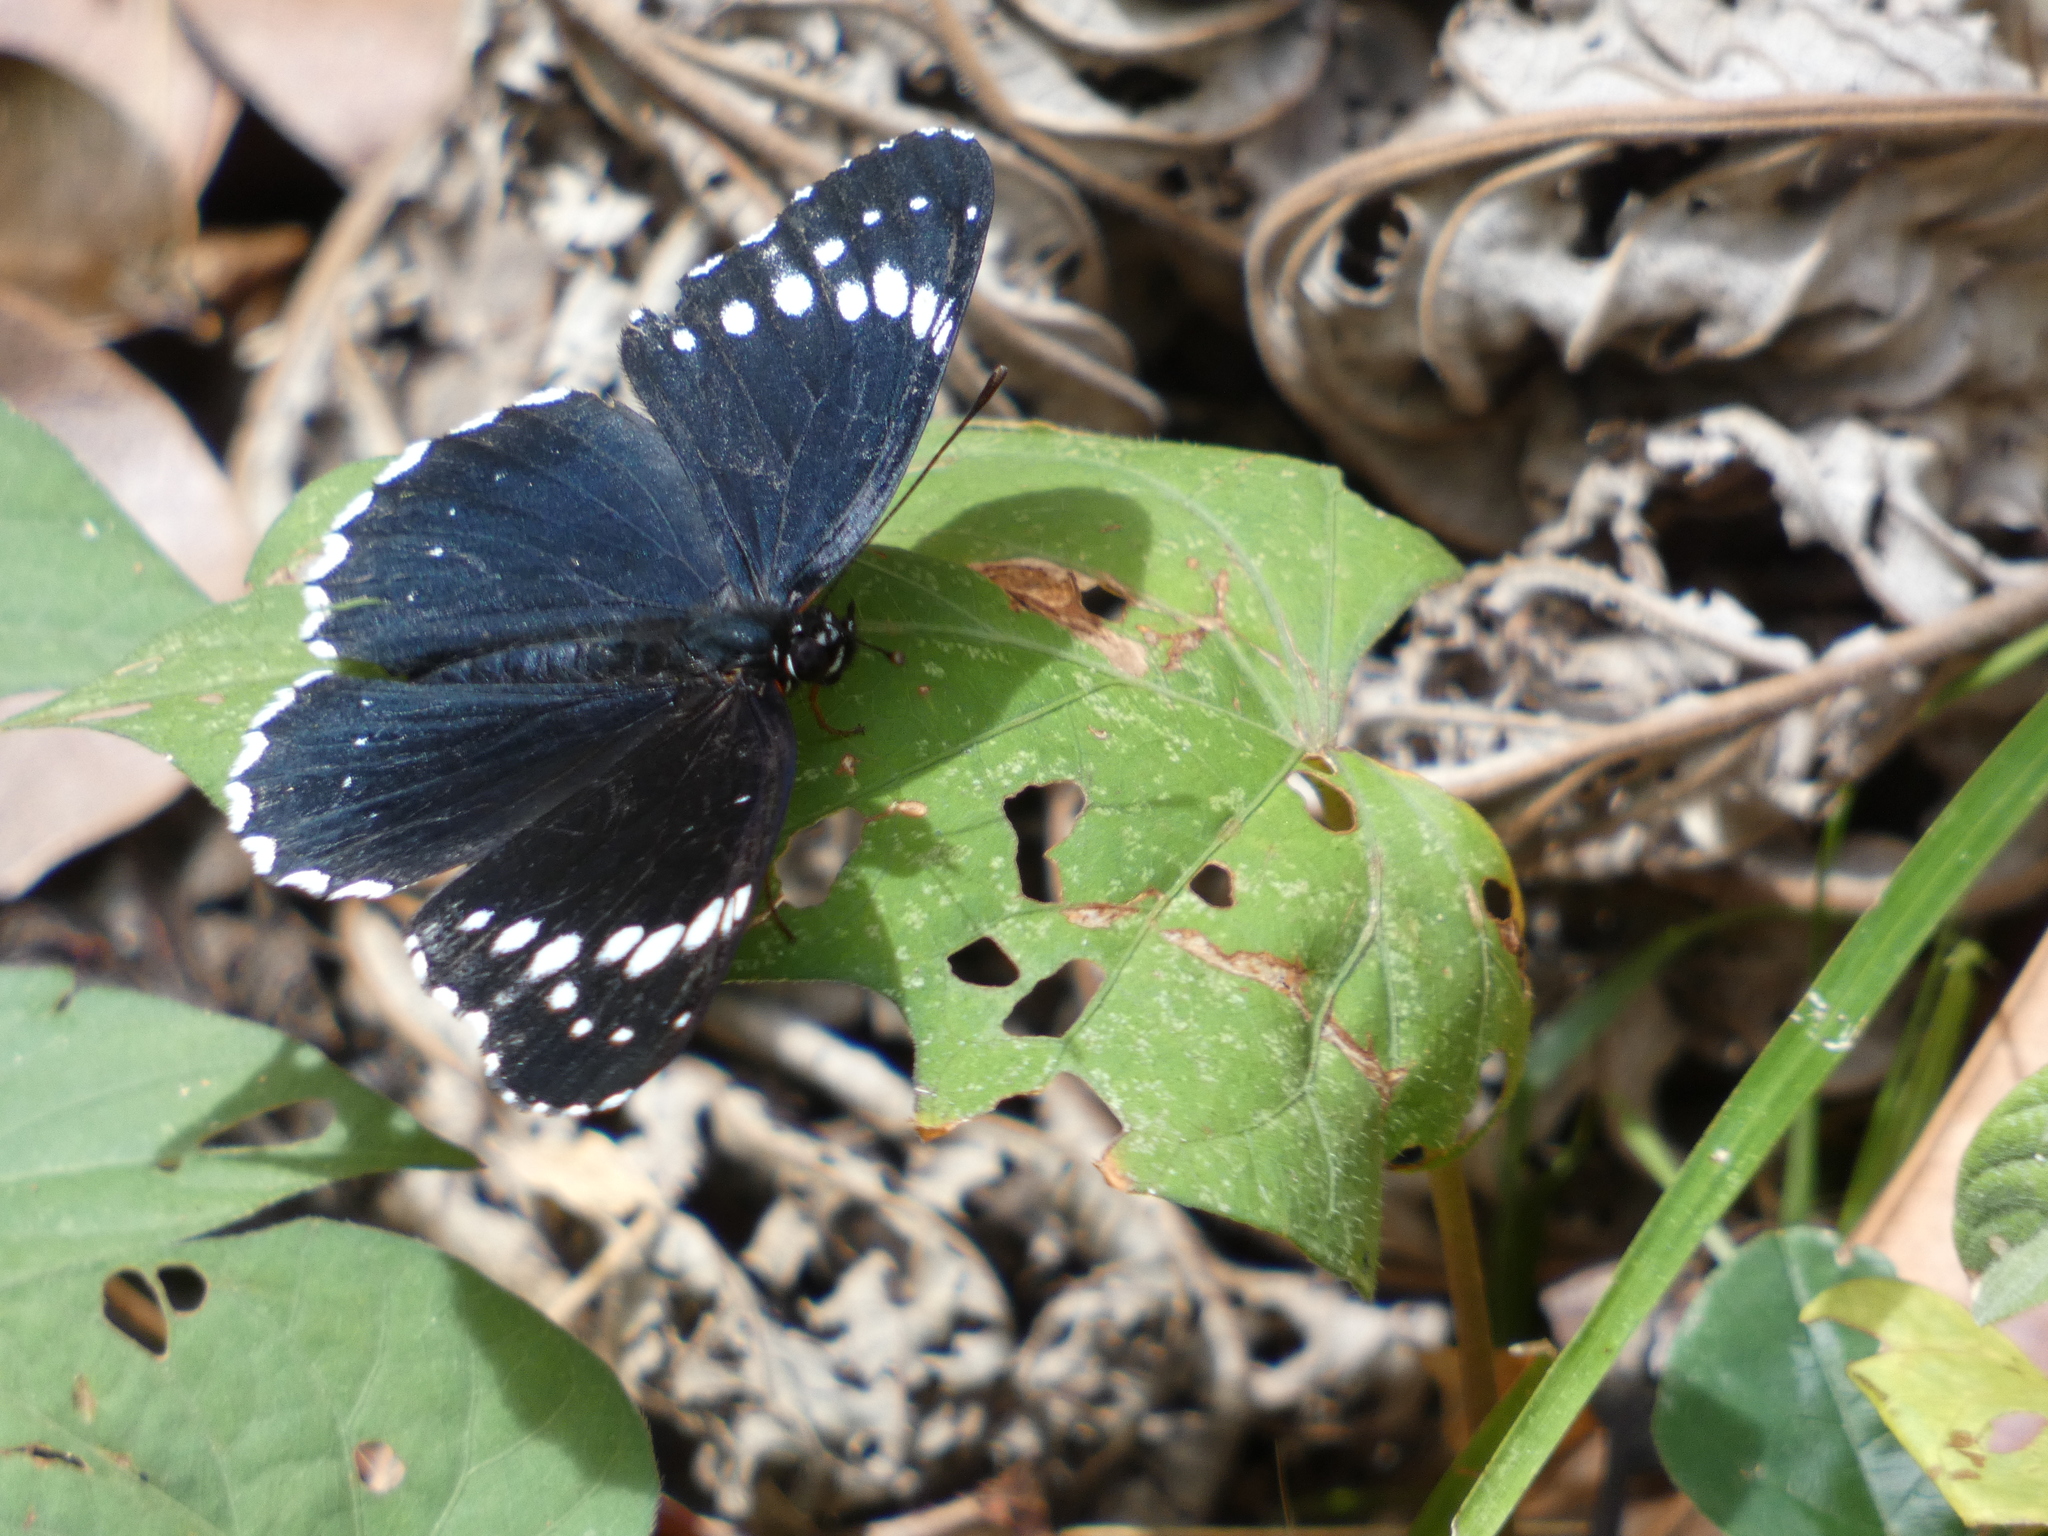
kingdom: Animalia
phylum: Arthropoda
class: Insecta
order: Lepidoptera
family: Nymphalidae
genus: Chlosyne
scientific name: Chlosyne hippodrome
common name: Simple patch
